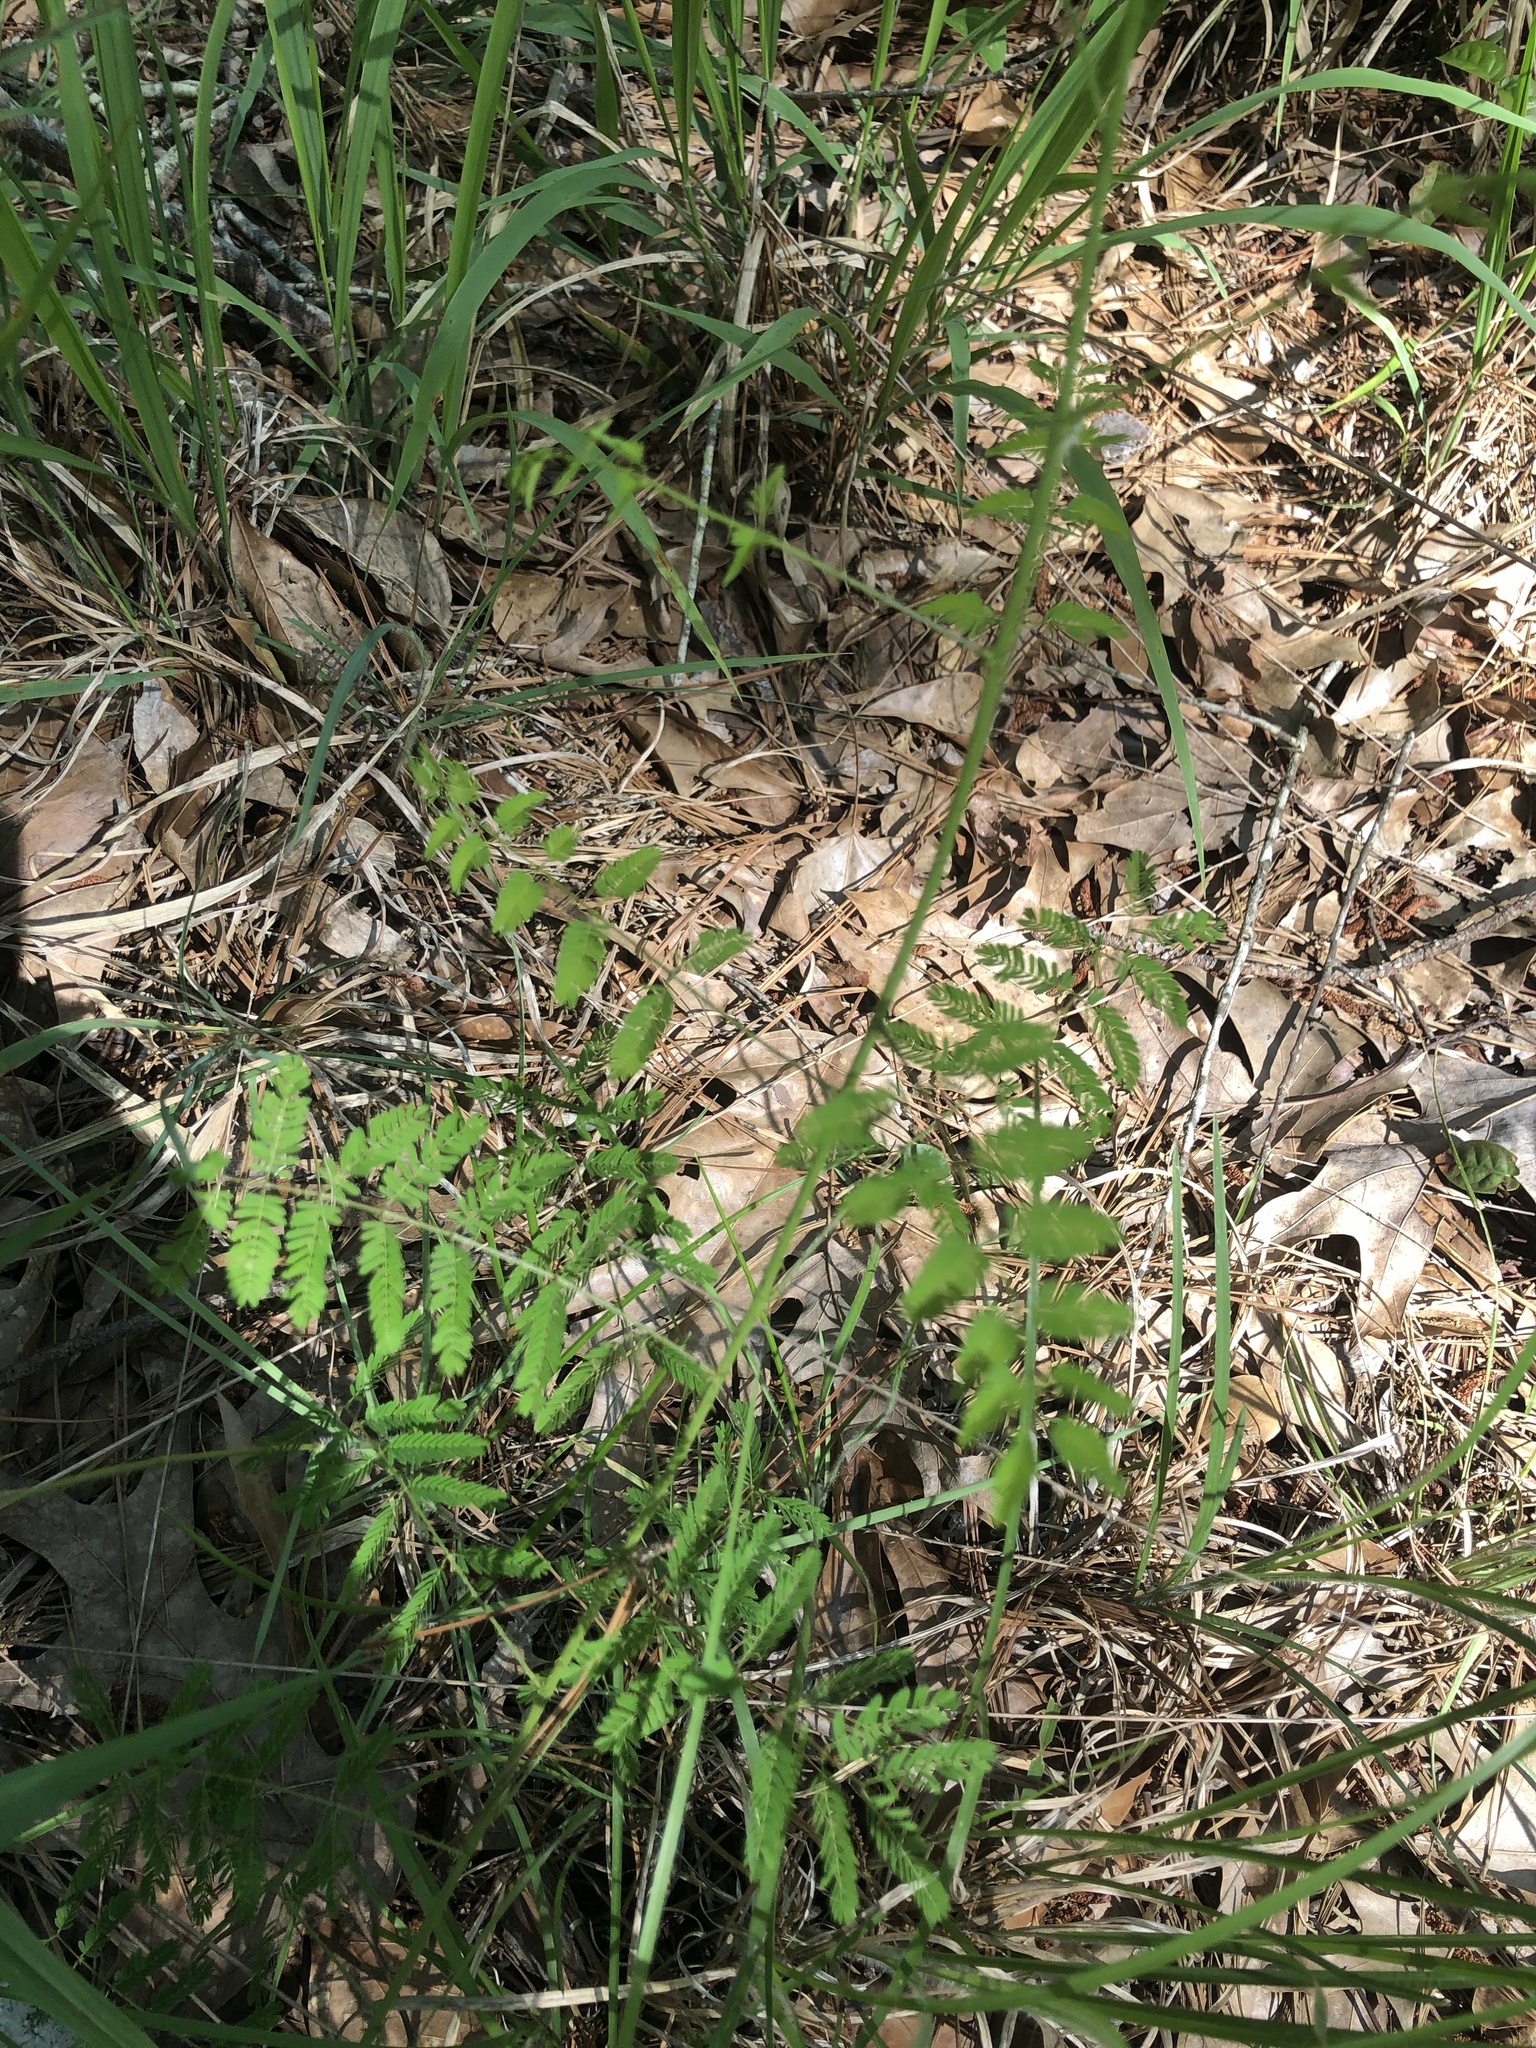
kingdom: Plantae
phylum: Tracheophyta
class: Magnoliopsida
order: Fabales
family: Fabaceae
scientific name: Fabaceae
